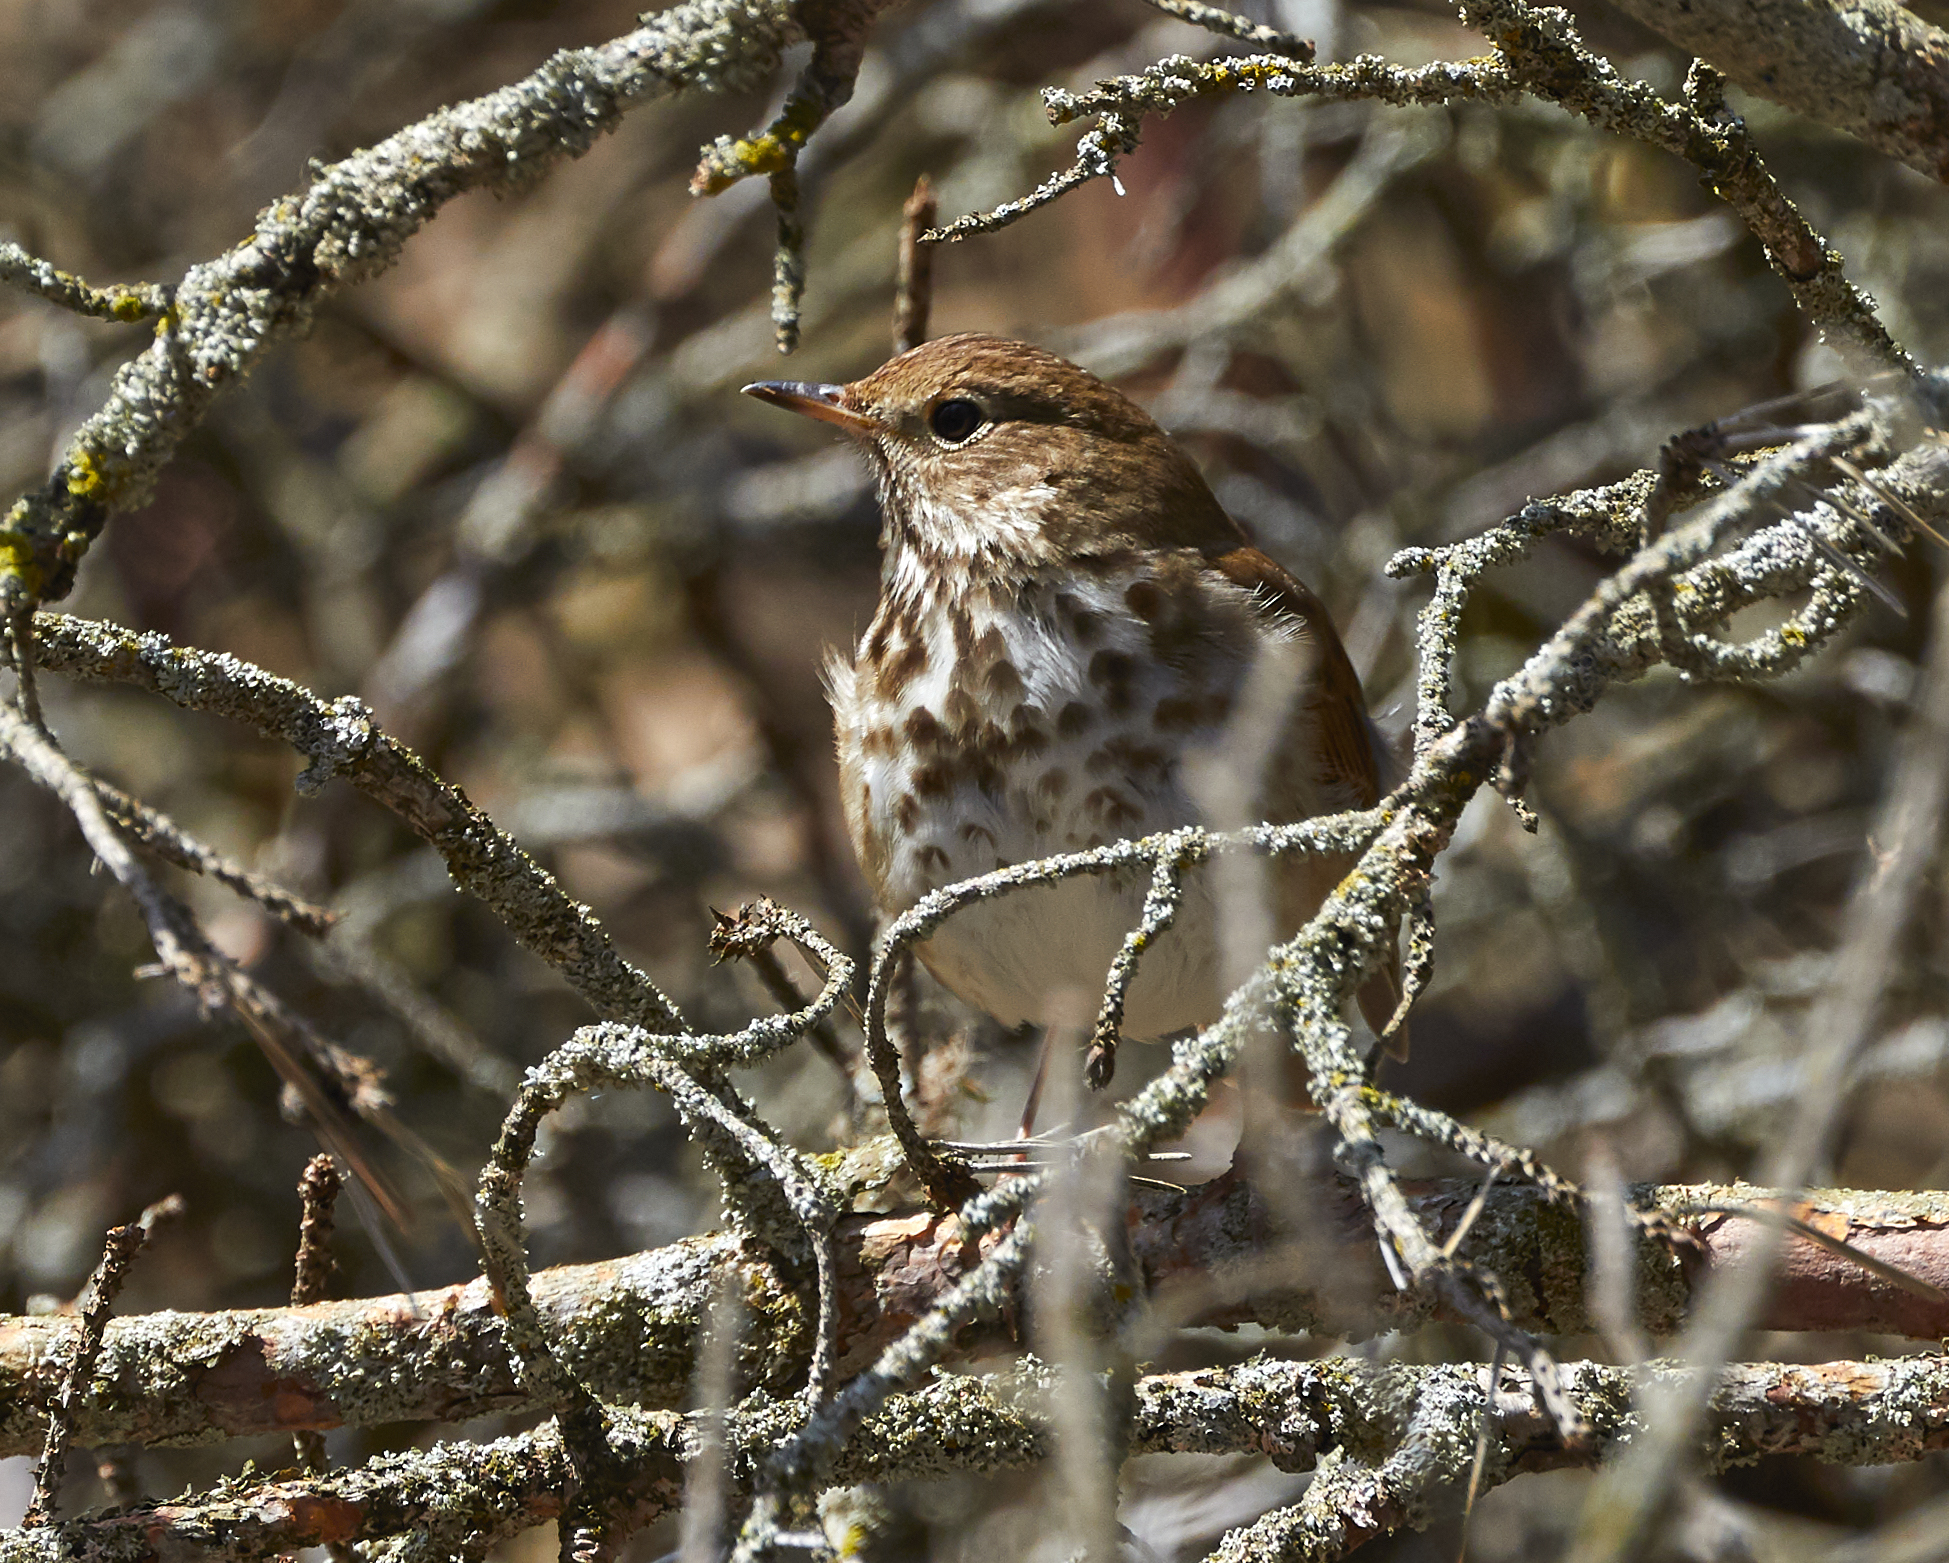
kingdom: Animalia
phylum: Chordata
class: Aves
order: Passeriformes
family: Turdidae
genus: Catharus
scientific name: Catharus guttatus
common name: Hermit thrush
